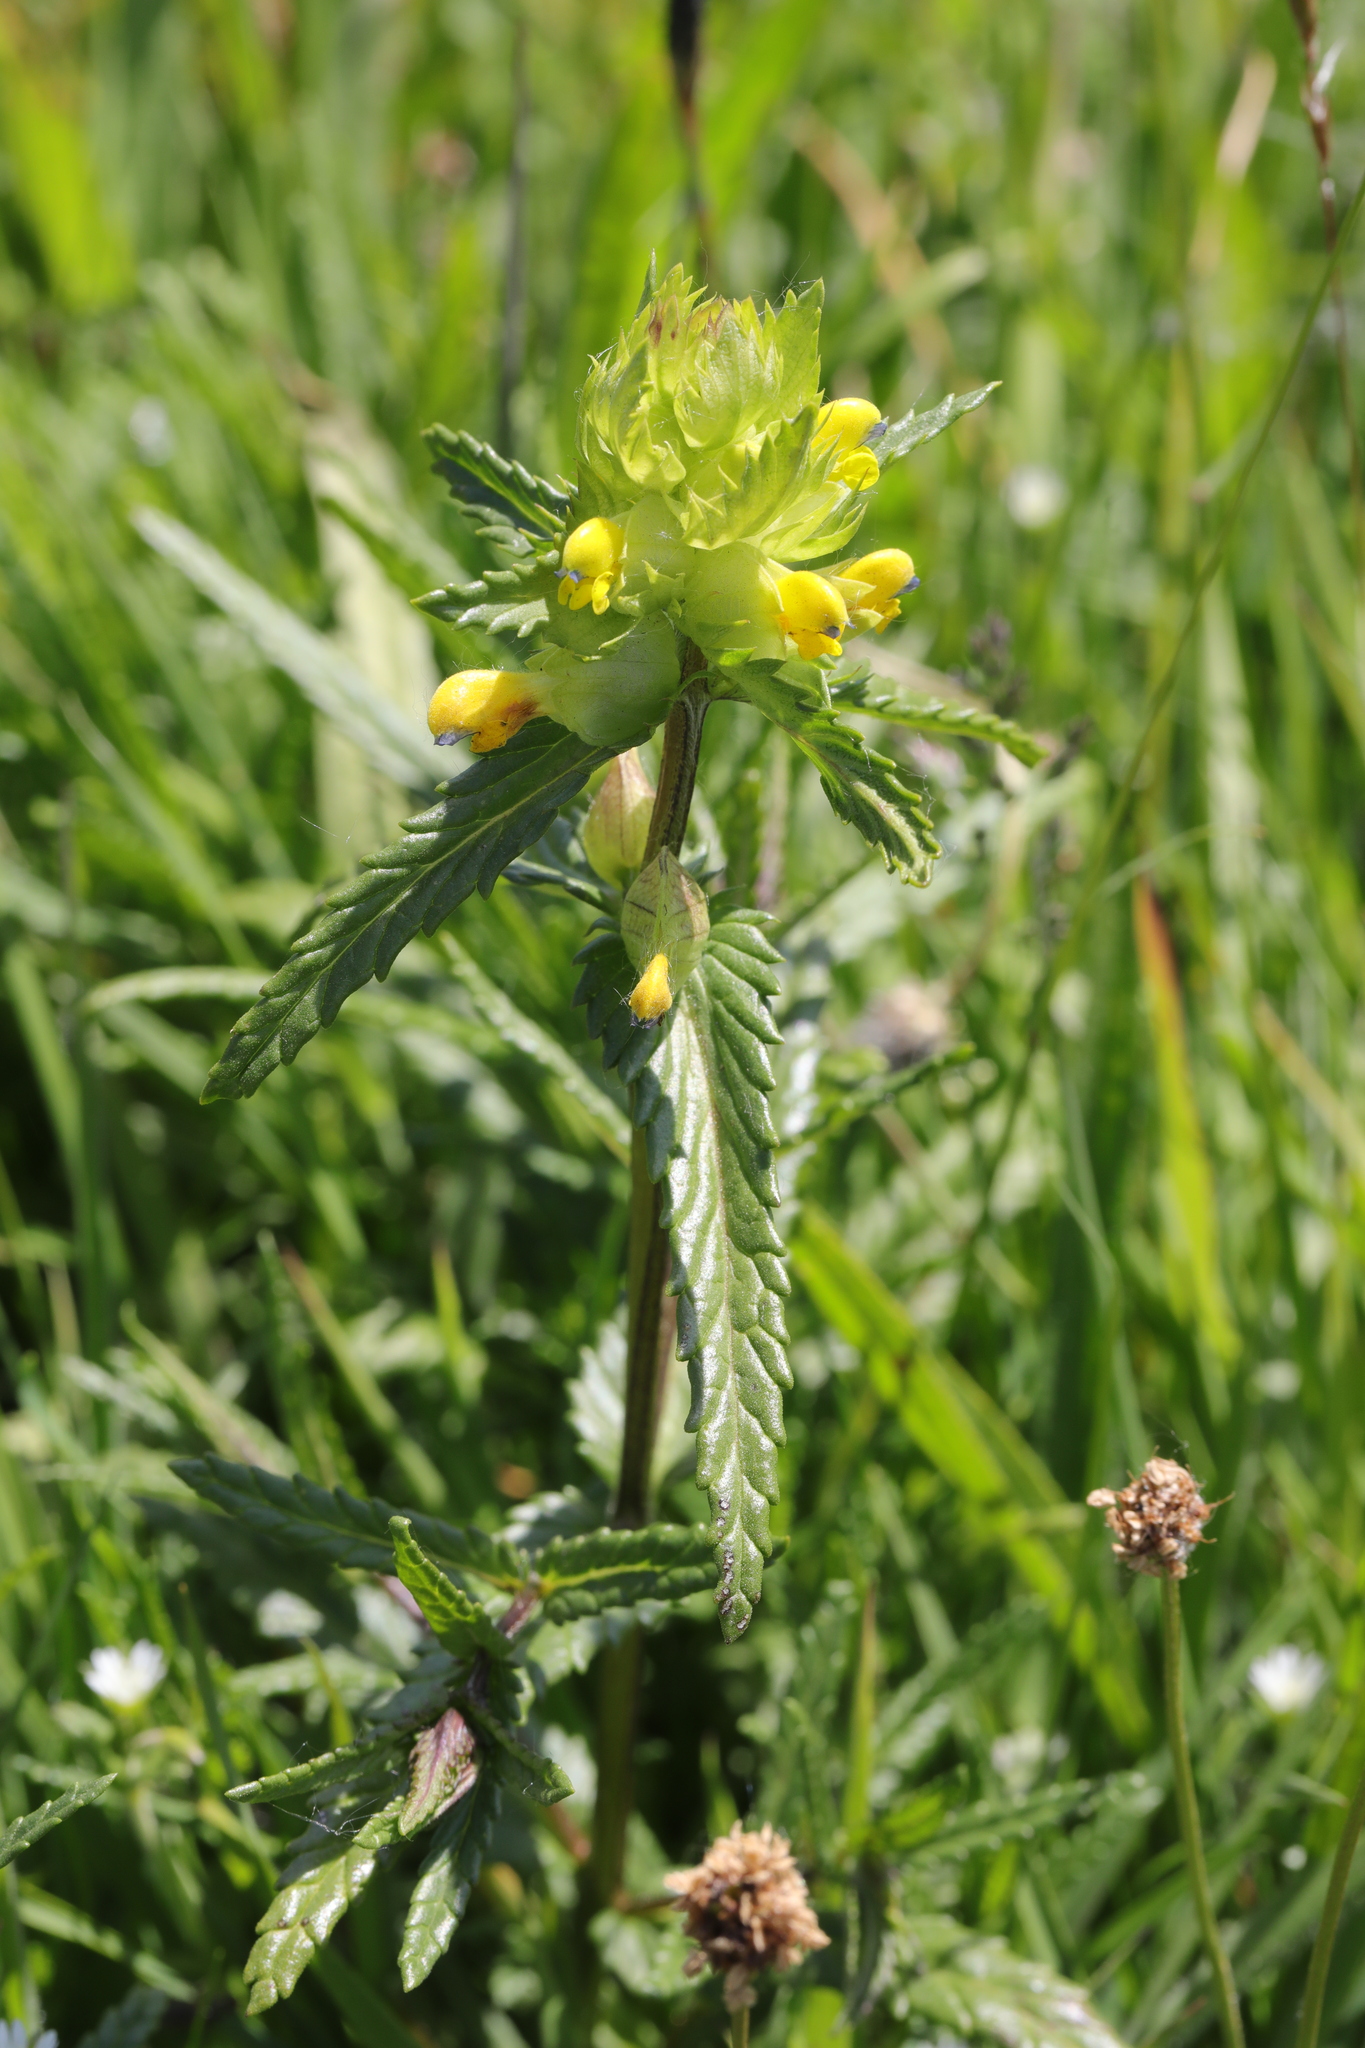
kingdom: Plantae
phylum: Tracheophyta
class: Magnoliopsida
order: Lamiales
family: Orobanchaceae
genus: Rhinanthus
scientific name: Rhinanthus minor
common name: Yellow-rattle
